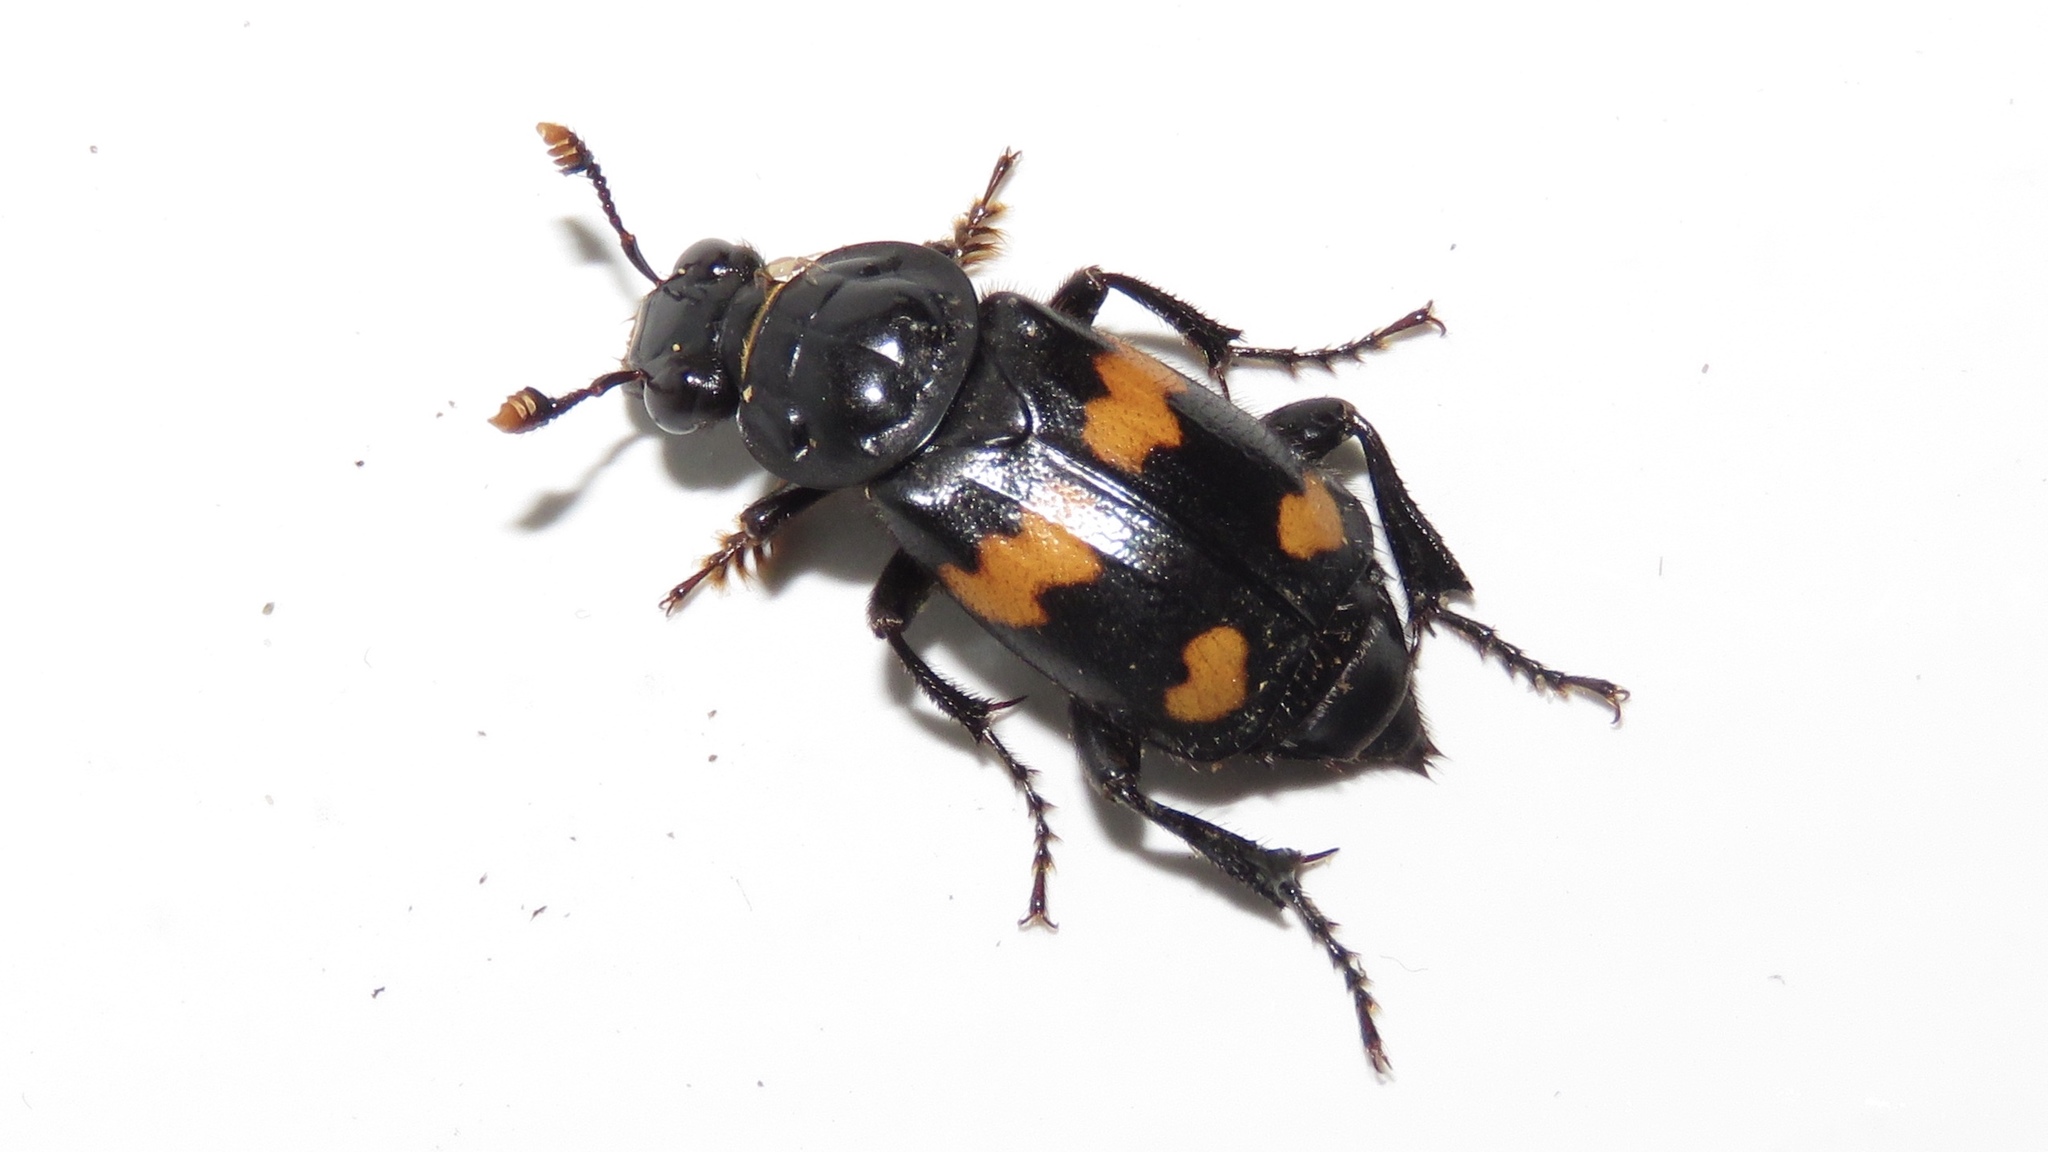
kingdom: Animalia
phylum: Arthropoda
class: Insecta
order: Coleoptera
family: Staphylinidae
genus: Nicrophorus
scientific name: Nicrophorus orbicollis
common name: Roundneck sexton beetle
